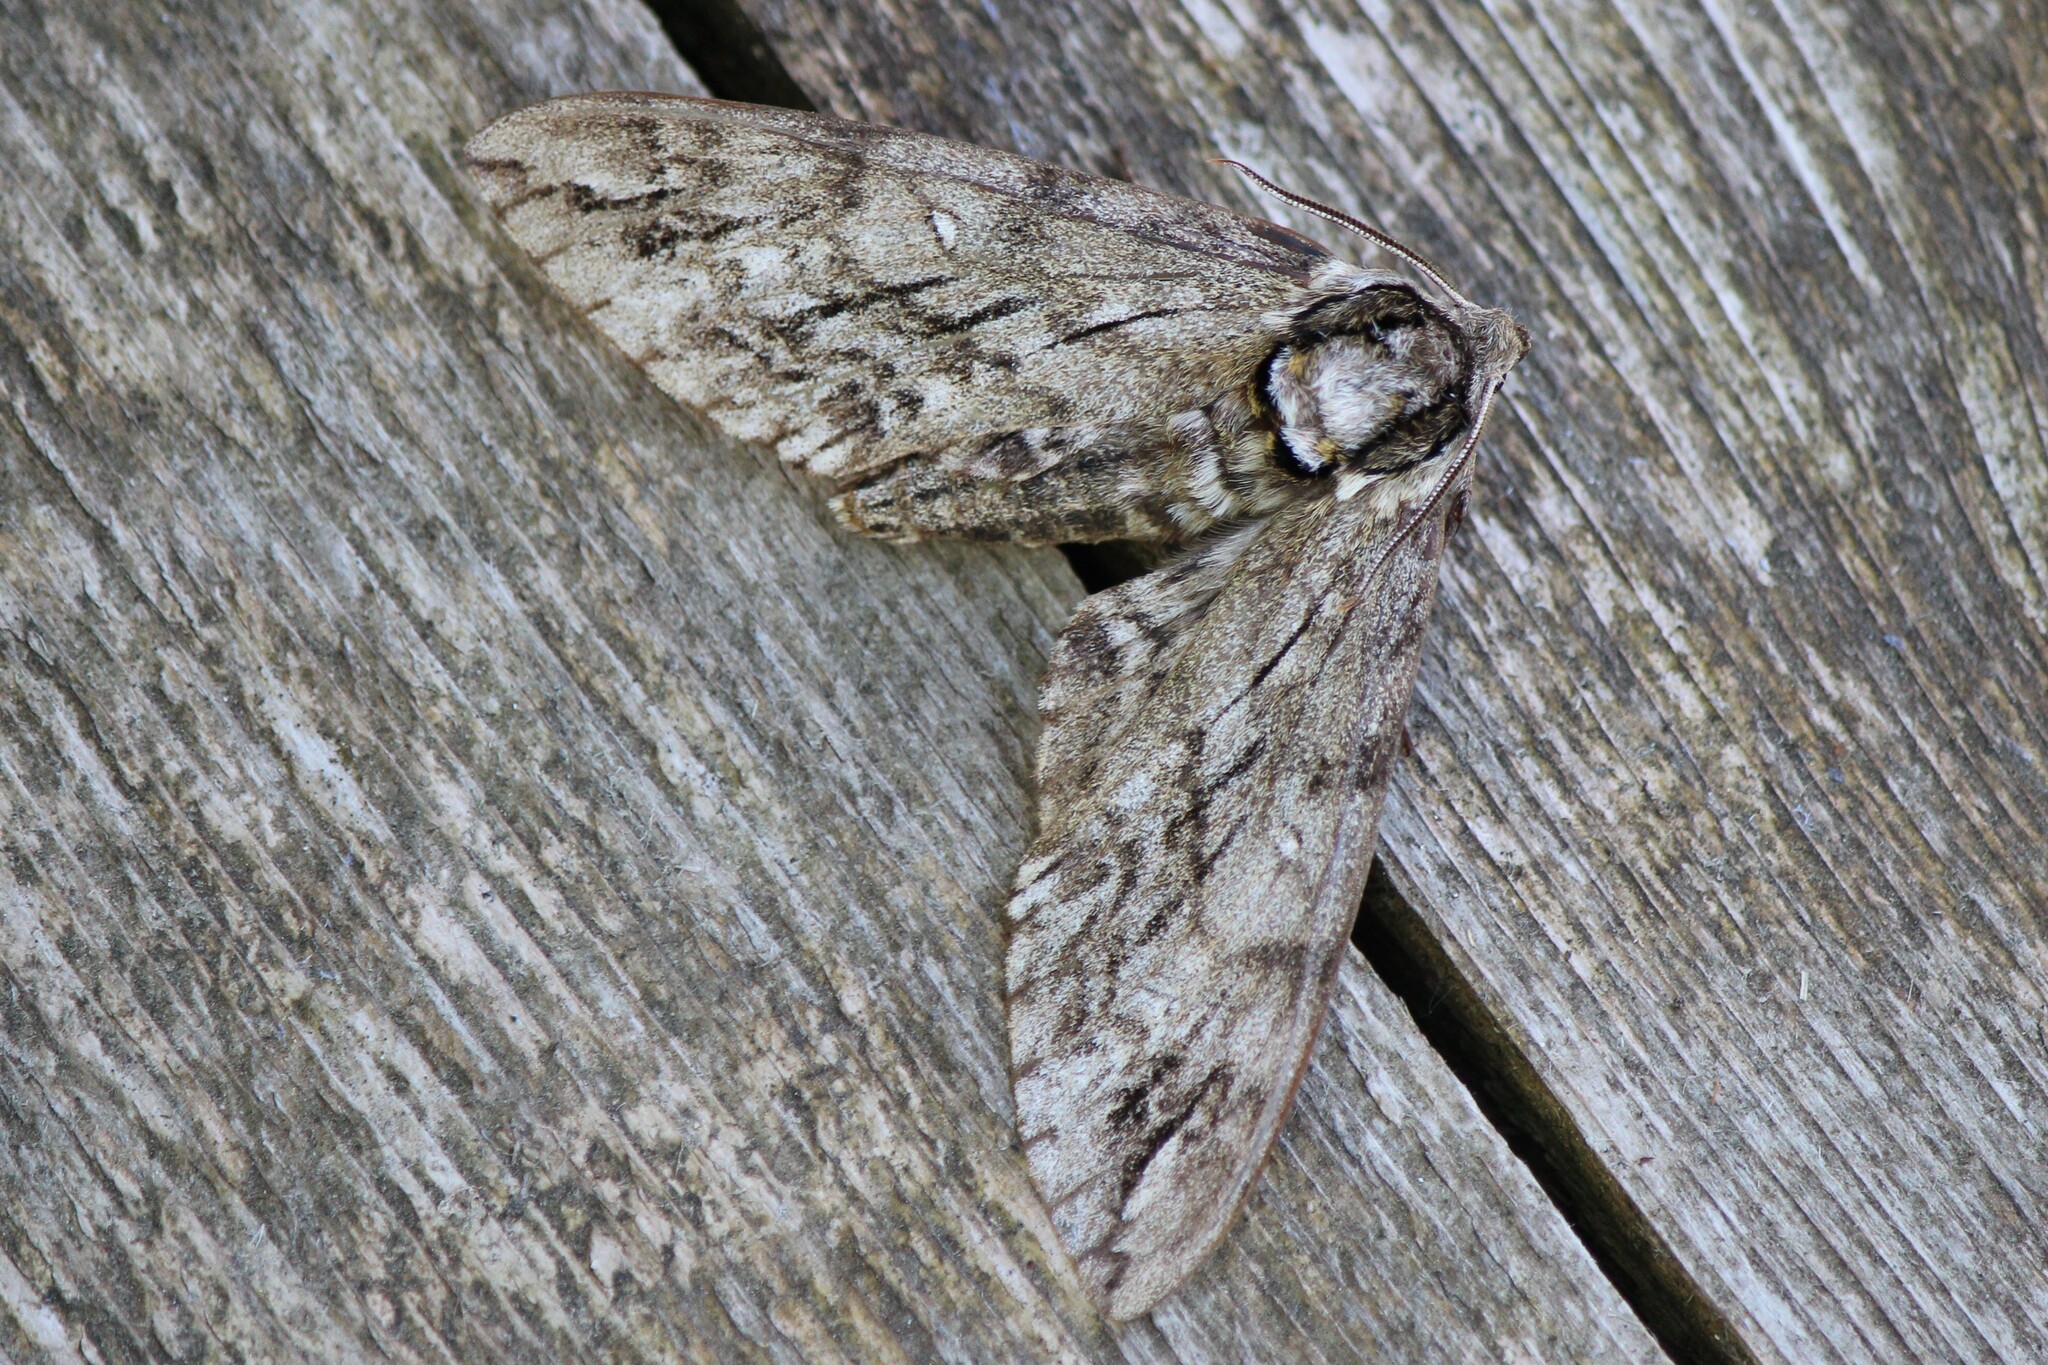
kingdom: Animalia
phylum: Arthropoda
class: Insecta
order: Lepidoptera
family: Sphingidae
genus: Ceratomia
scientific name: Ceratomia undulosa
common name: Waved sphinx
